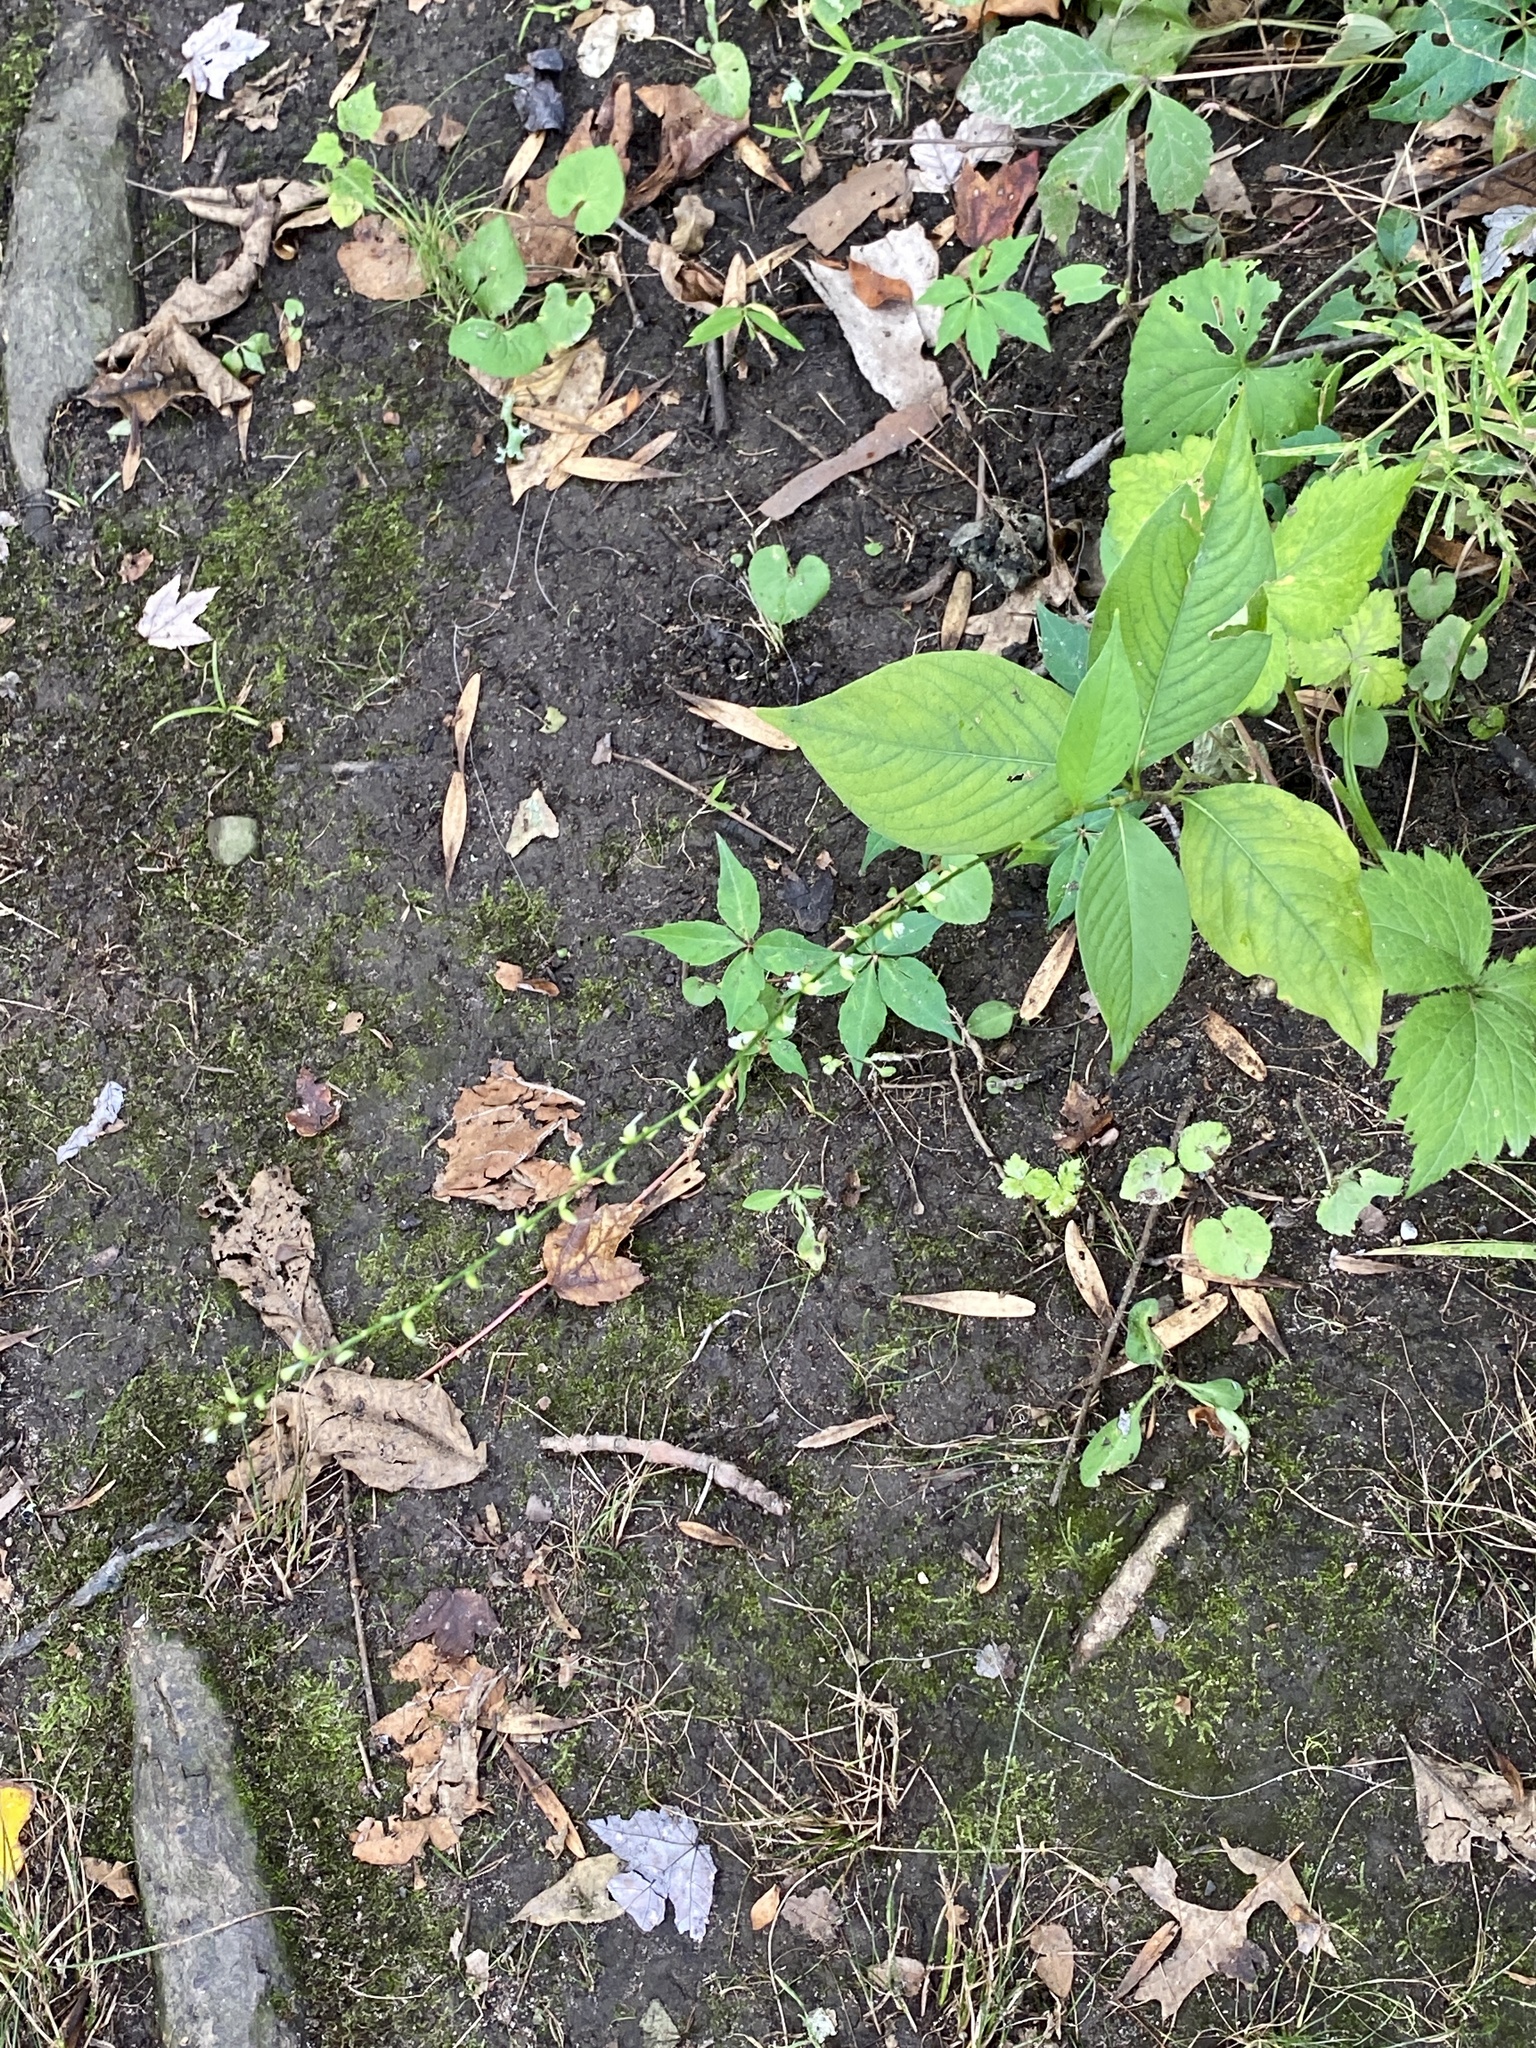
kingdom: Plantae
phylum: Tracheophyta
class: Magnoliopsida
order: Caryophyllales
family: Polygonaceae
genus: Persicaria
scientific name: Persicaria virginiana
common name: Jumpseed
